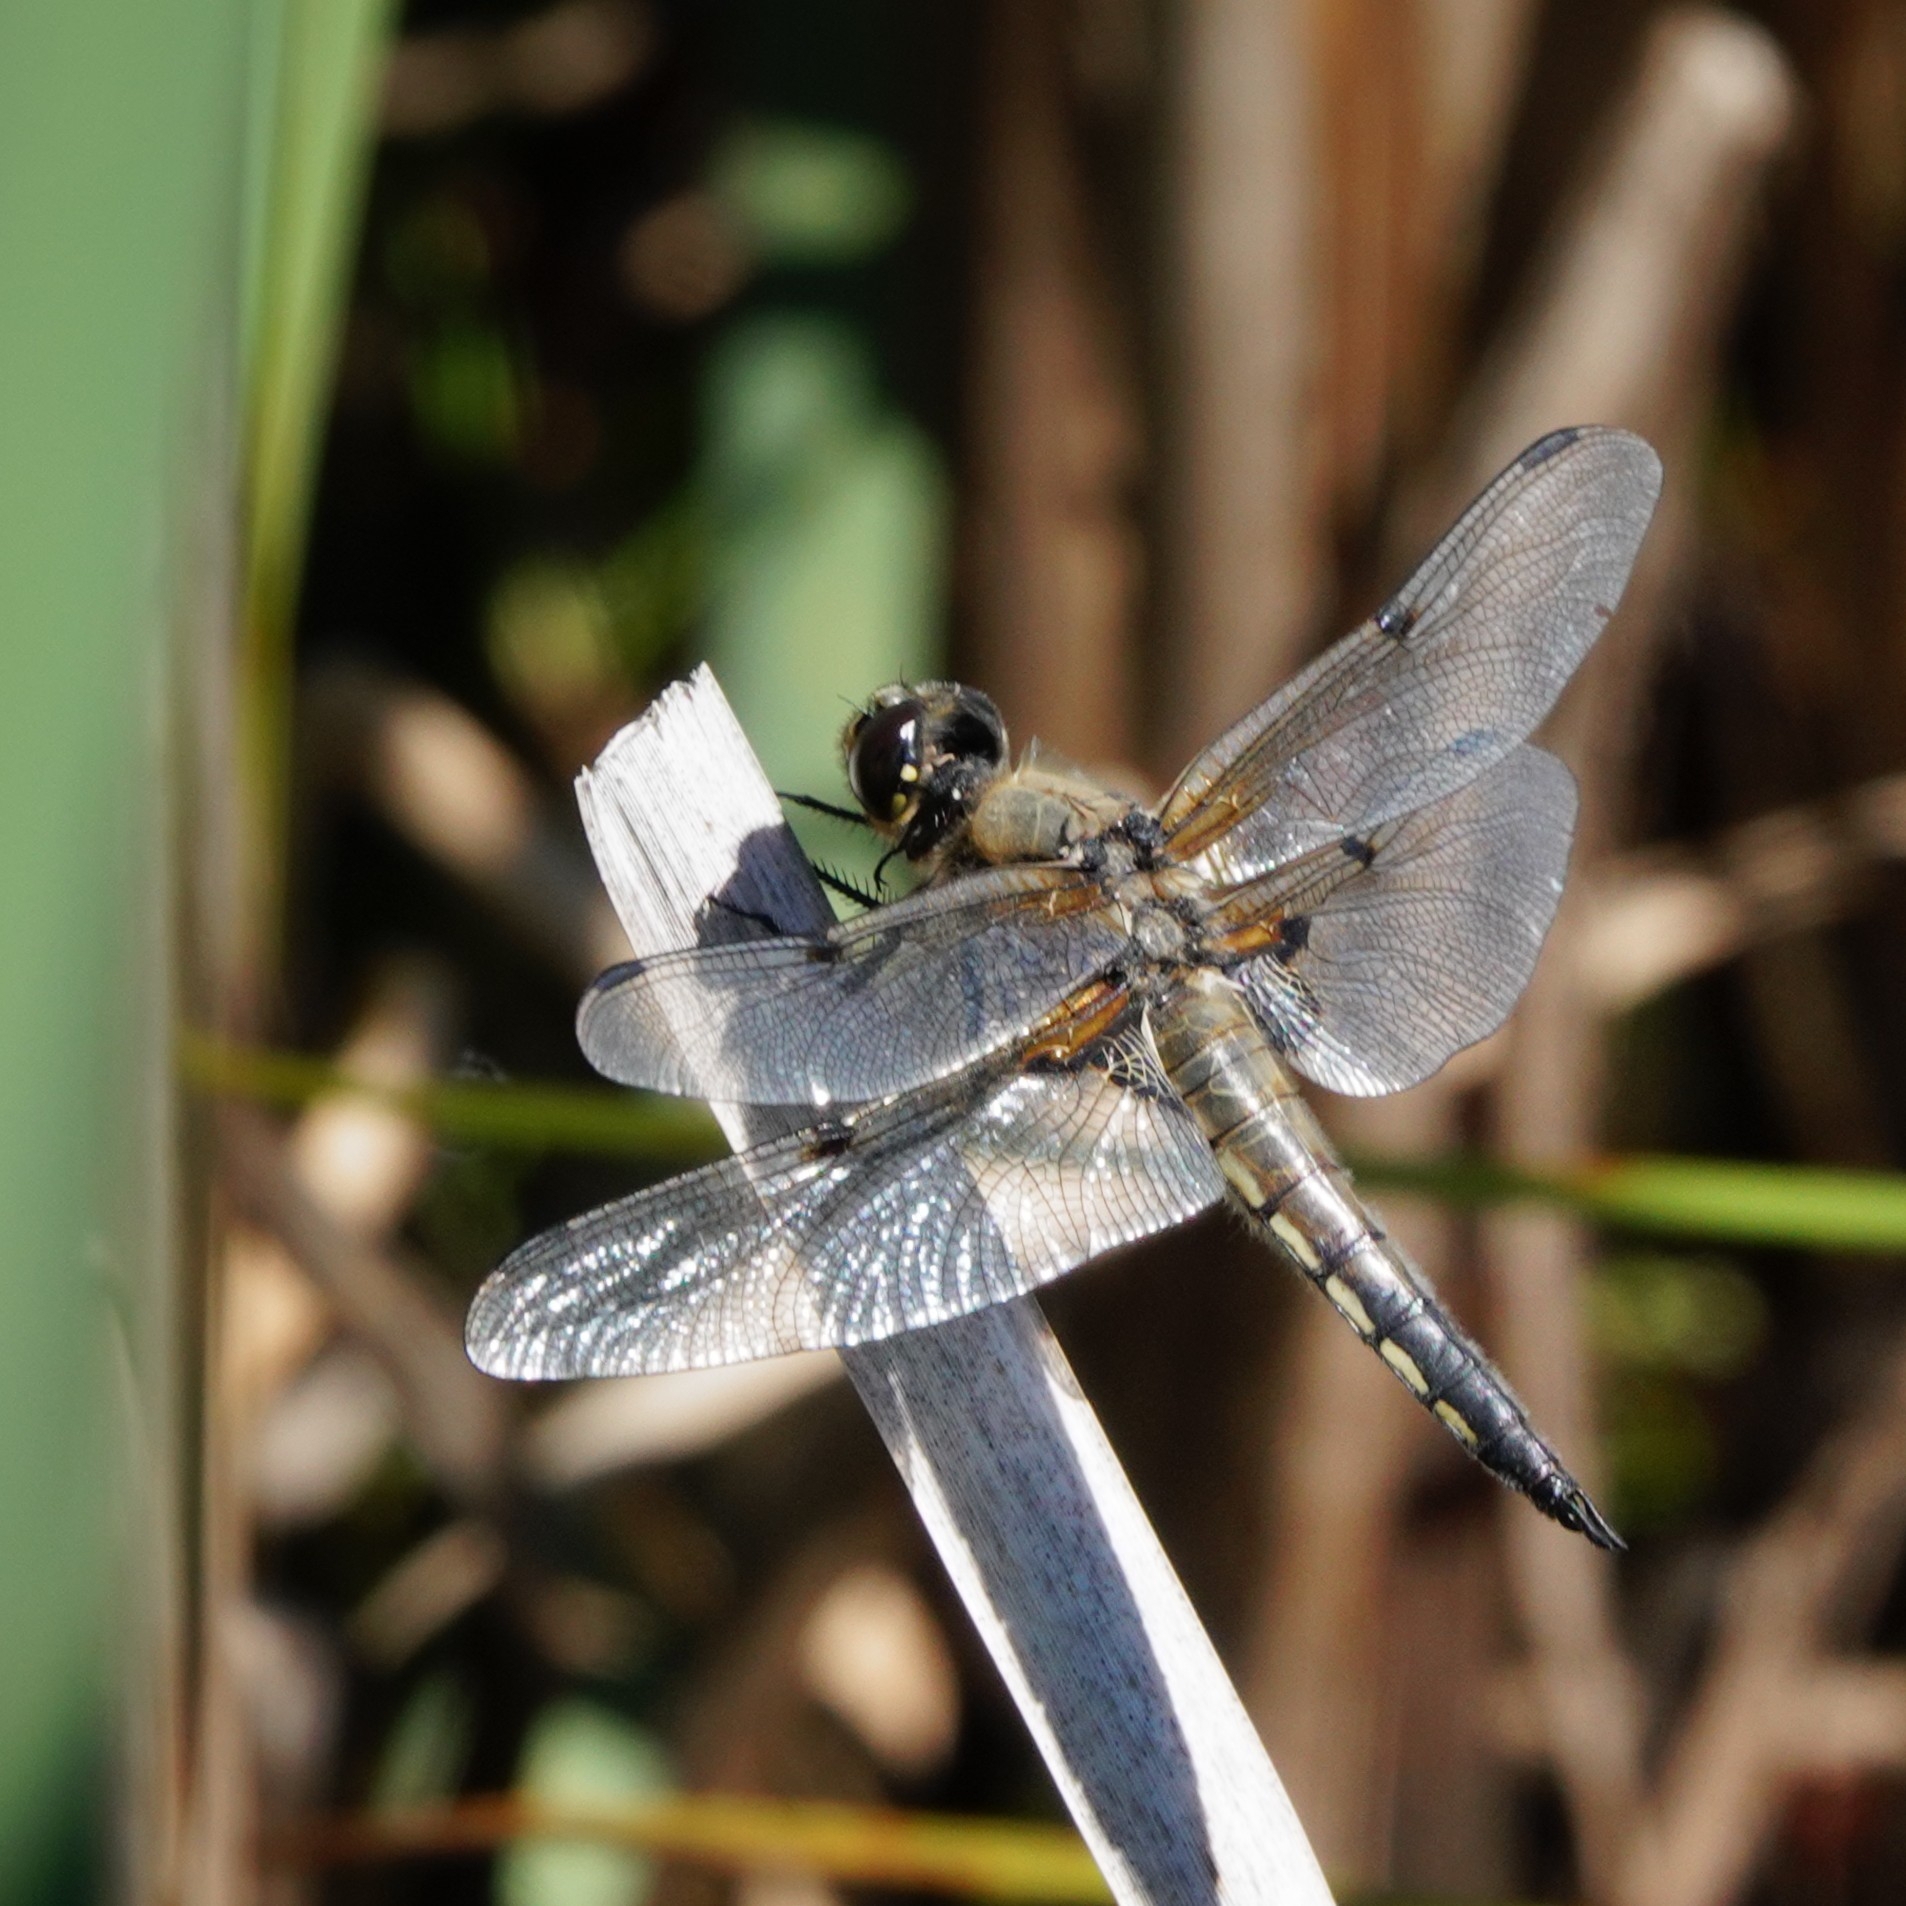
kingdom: Animalia
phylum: Arthropoda
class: Insecta
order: Odonata
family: Libellulidae
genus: Libellula
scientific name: Libellula quadrimaculata
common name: Four-spotted chaser
